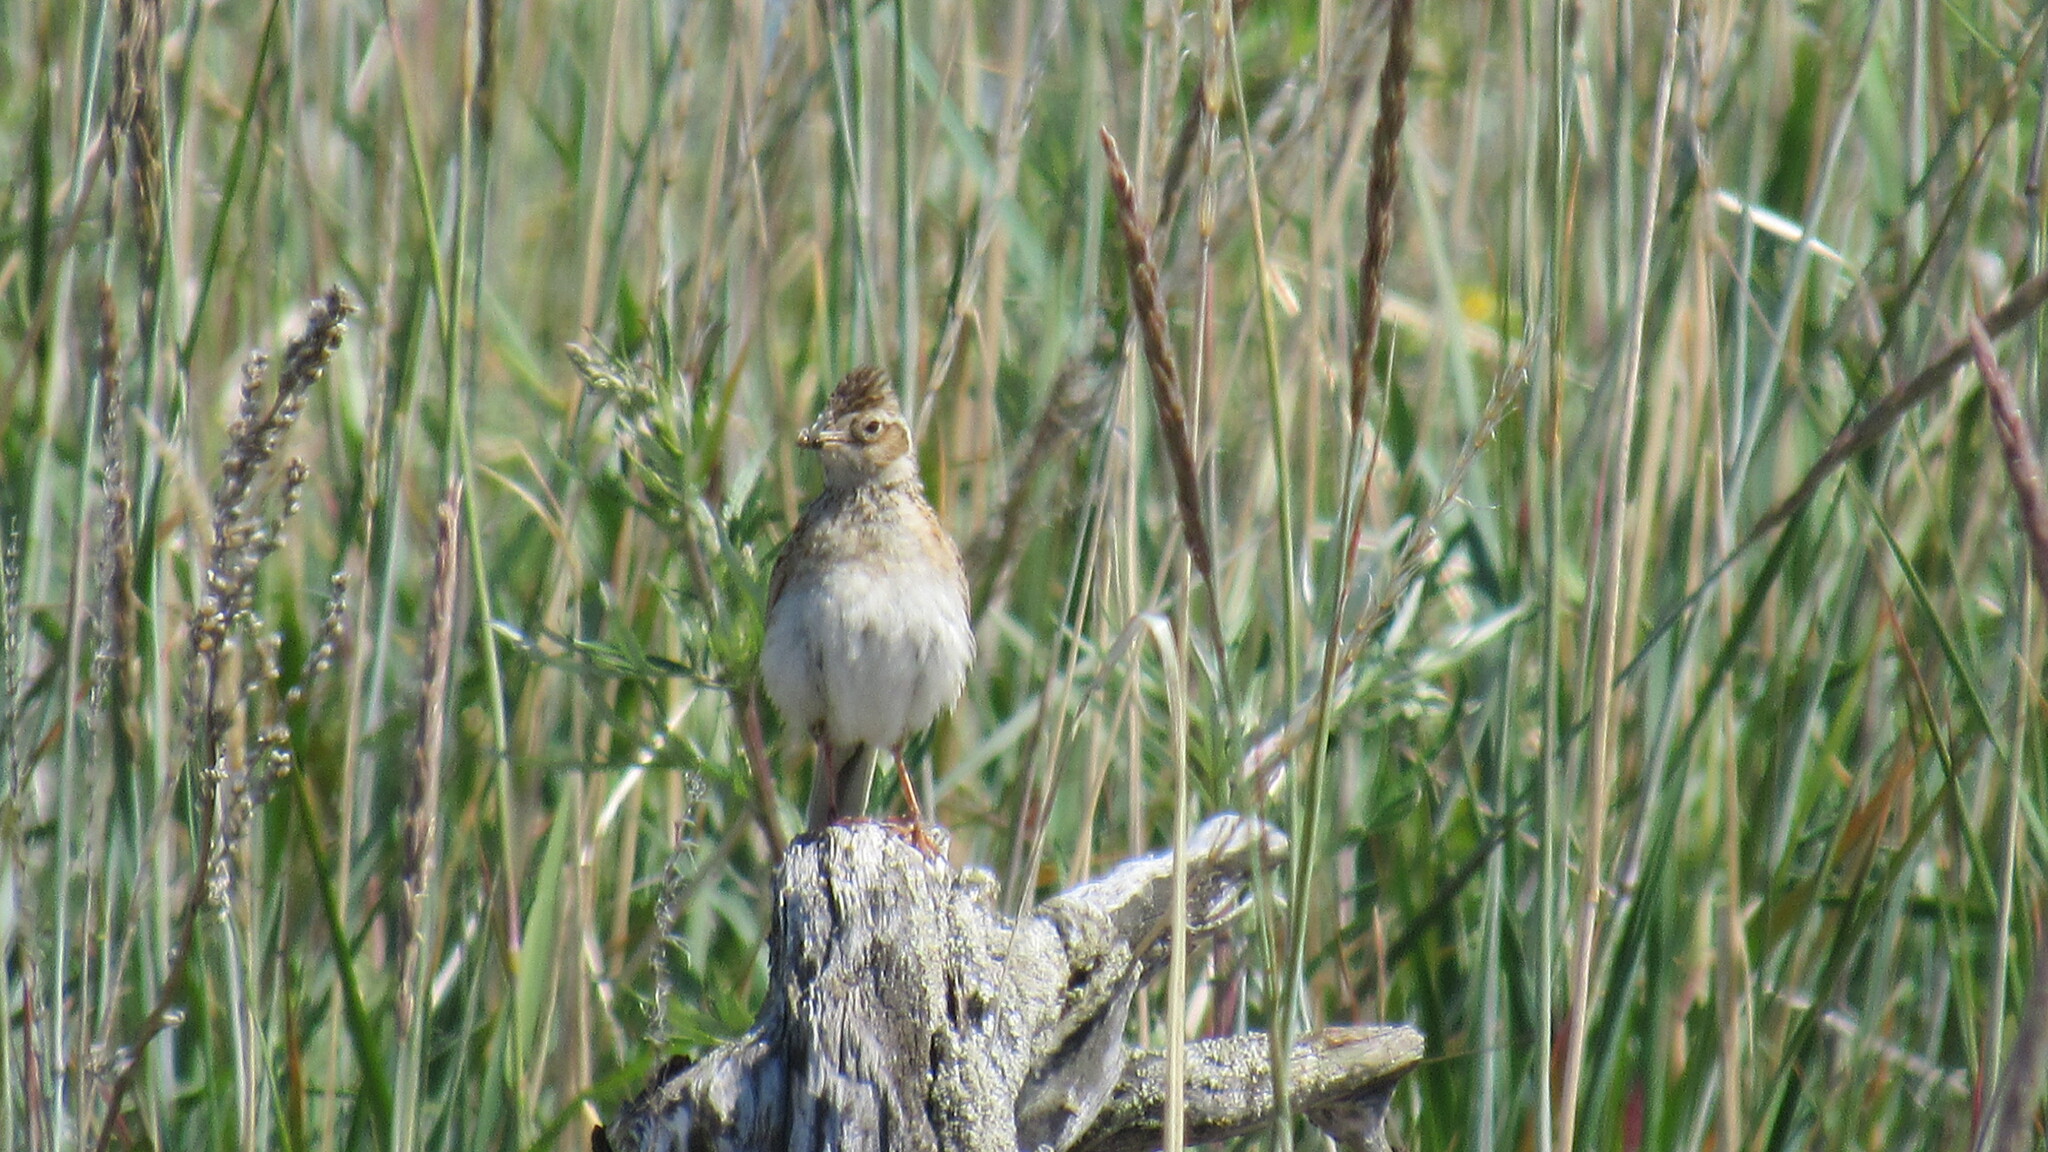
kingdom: Animalia
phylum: Chordata
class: Aves
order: Passeriformes
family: Alaudidae
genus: Alauda
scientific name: Alauda arvensis
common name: Eurasian skylark
